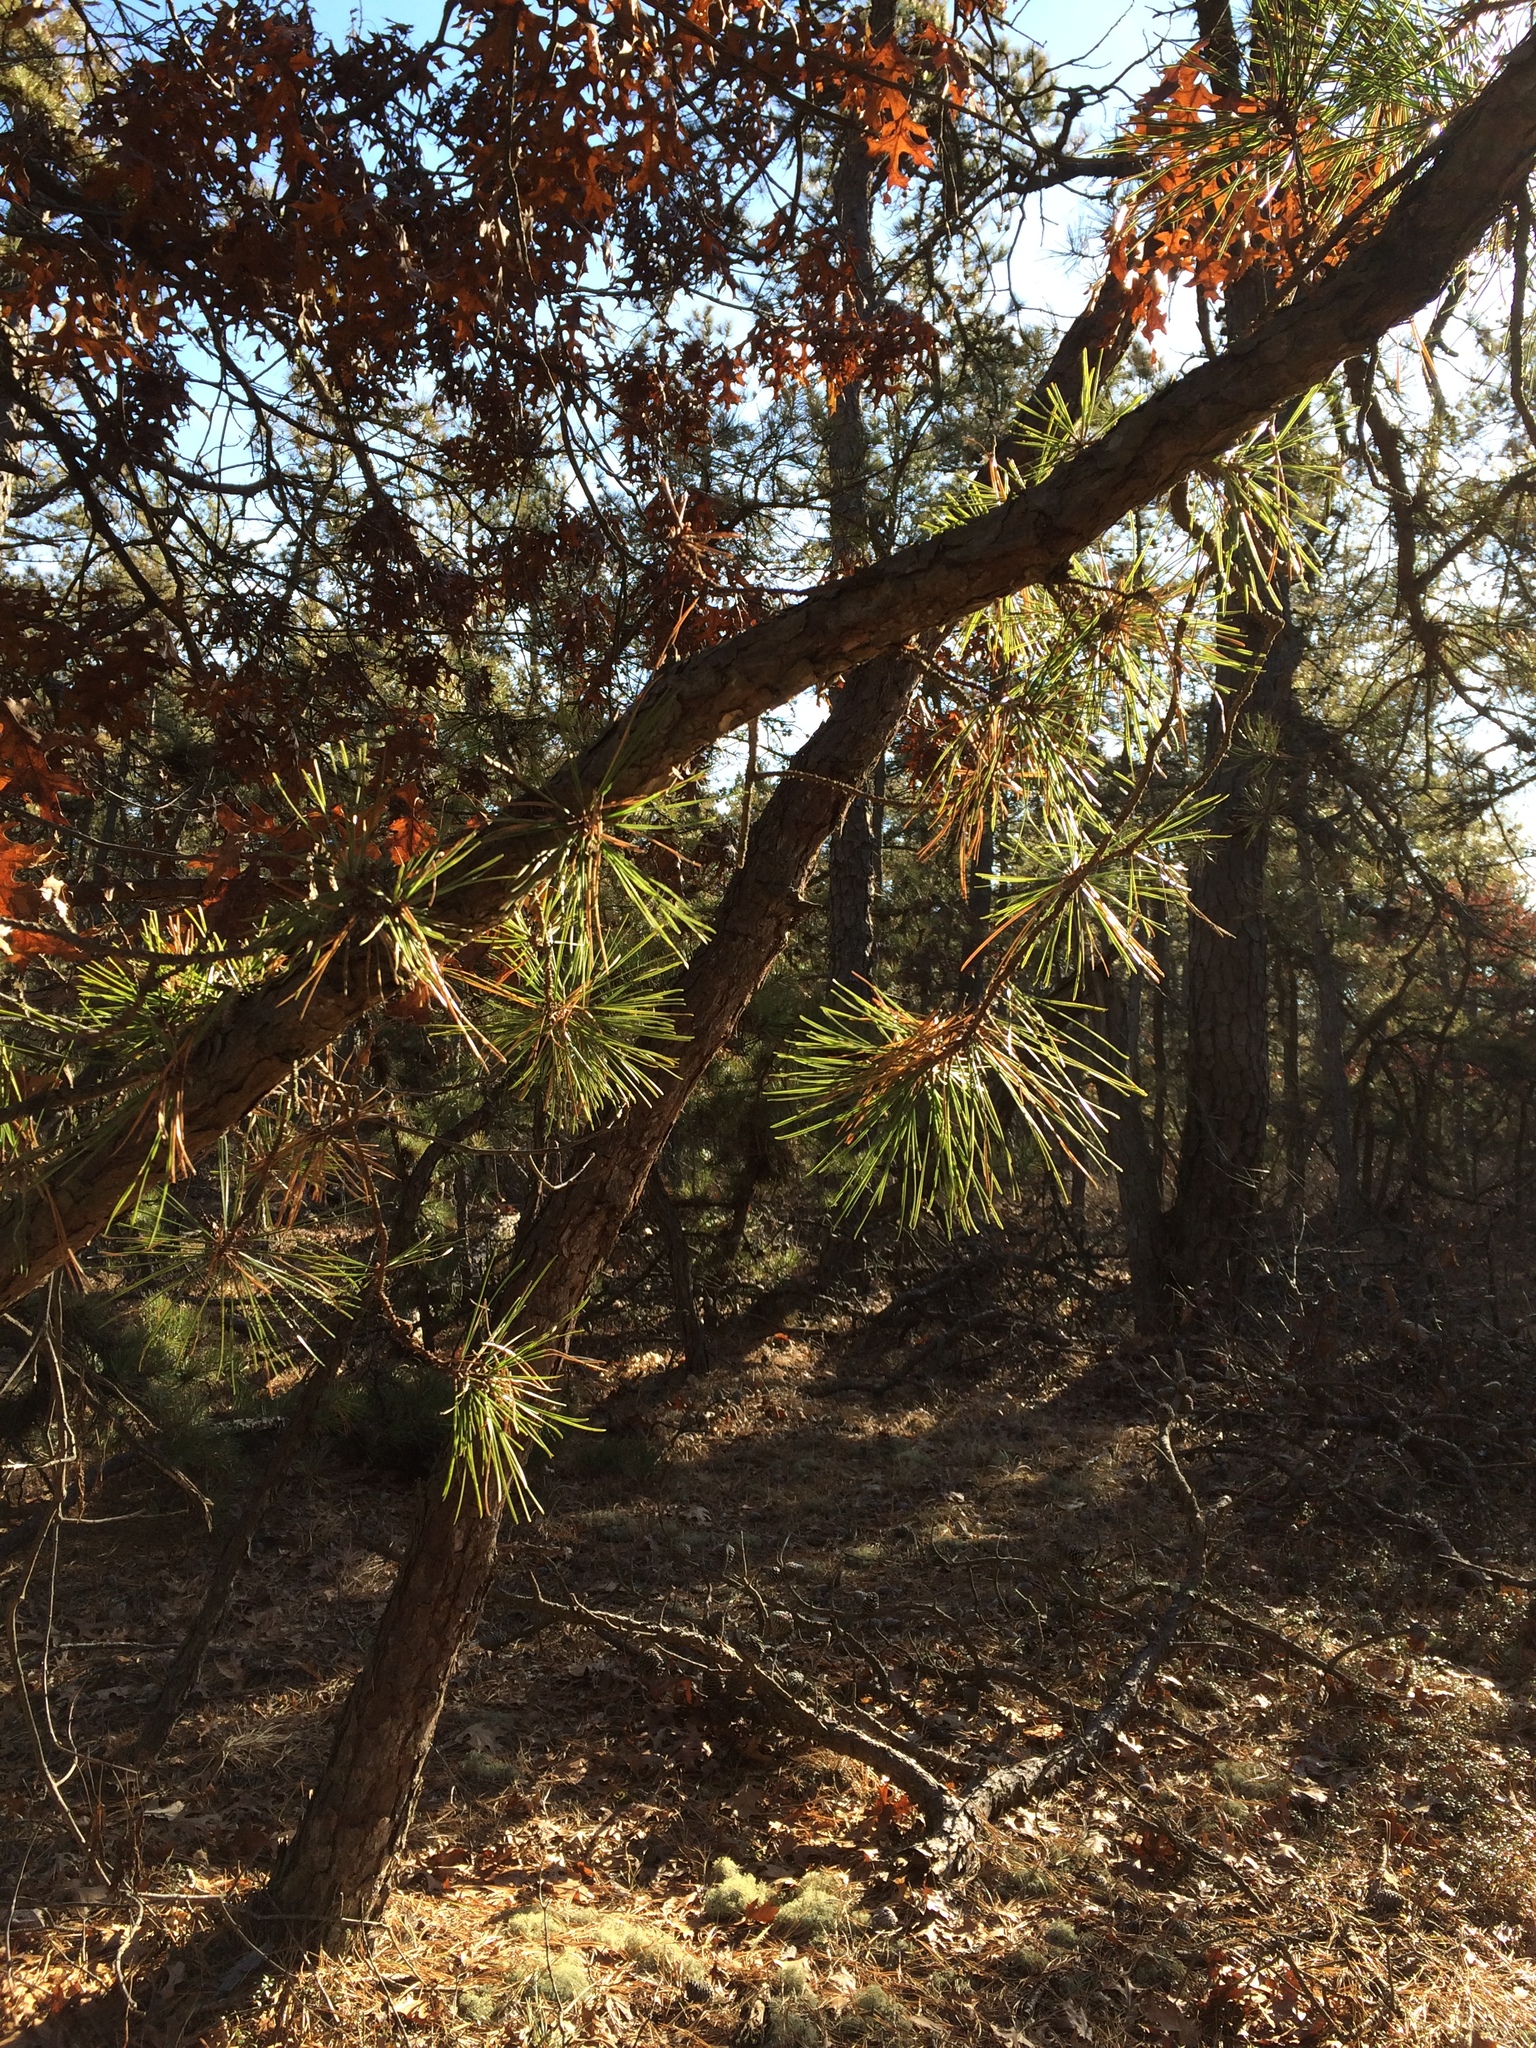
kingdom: Plantae
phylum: Tracheophyta
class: Pinopsida
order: Pinales
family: Pinaceae
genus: Pinus
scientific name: Pinus rigida
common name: Pitch pine
